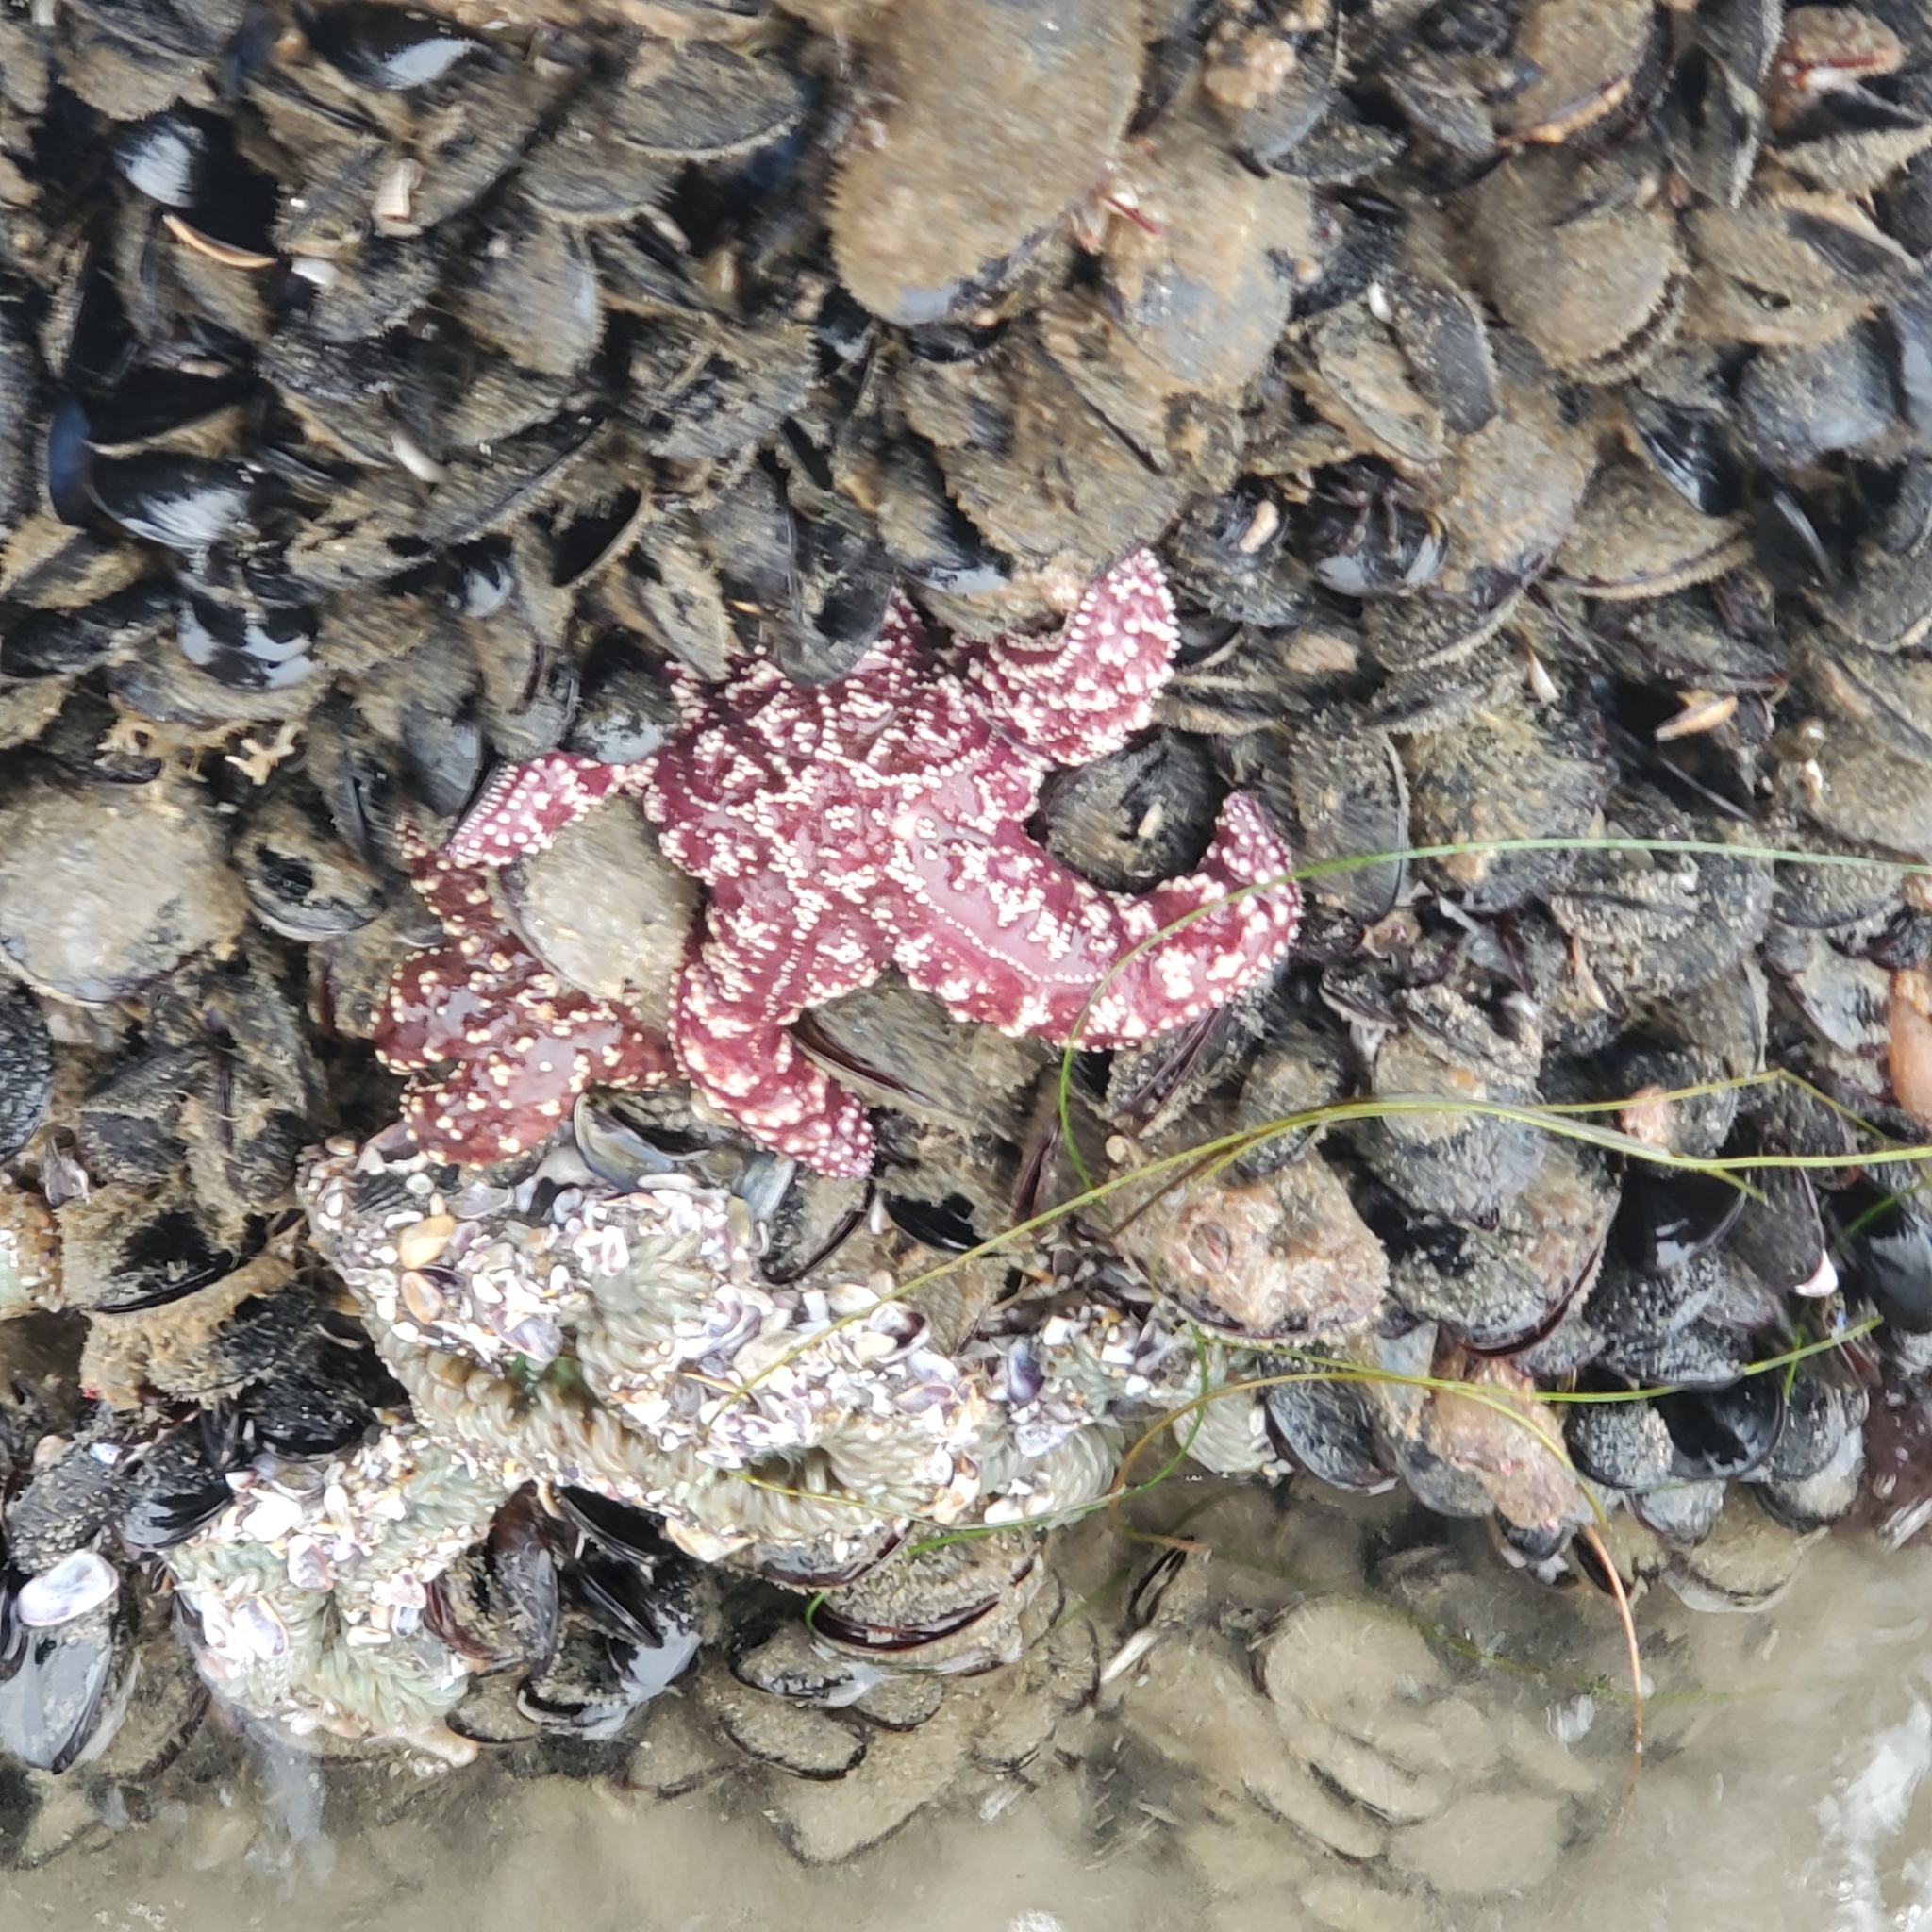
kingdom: Animalia
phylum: Echinodermata
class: Asteroidea
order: Forcipulatida
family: Asteriidae
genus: Pisaster
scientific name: Pisaster ochraceus
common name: Ochre stars
